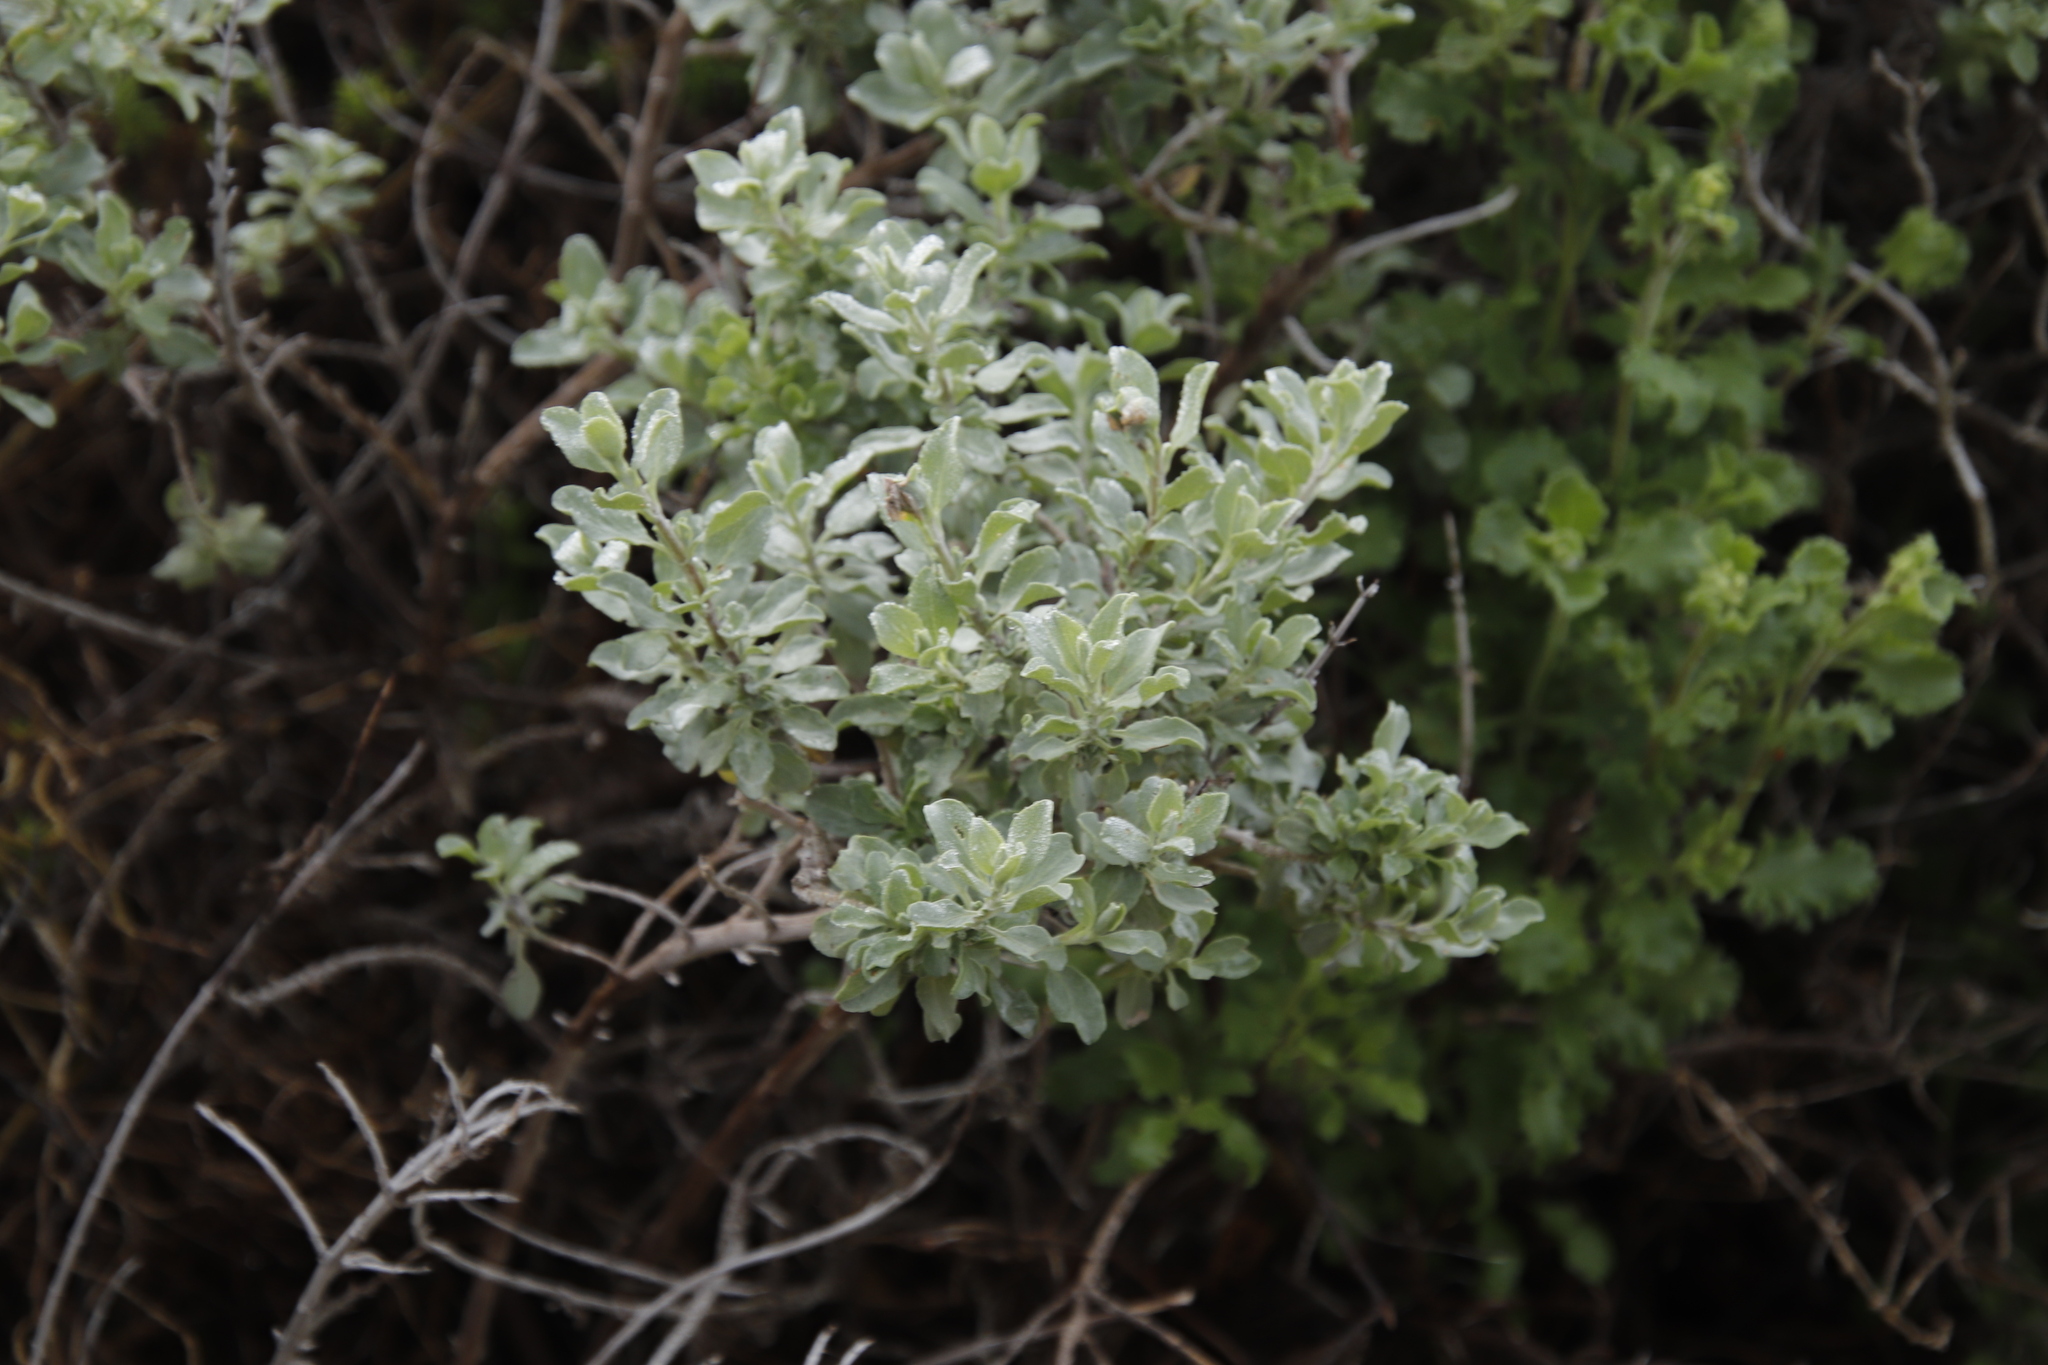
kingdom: Plantae
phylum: Tracheophyta
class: Magnoliopsida
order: Lamiales
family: Lamiaceae
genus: Salvia
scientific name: Salvia aurea
